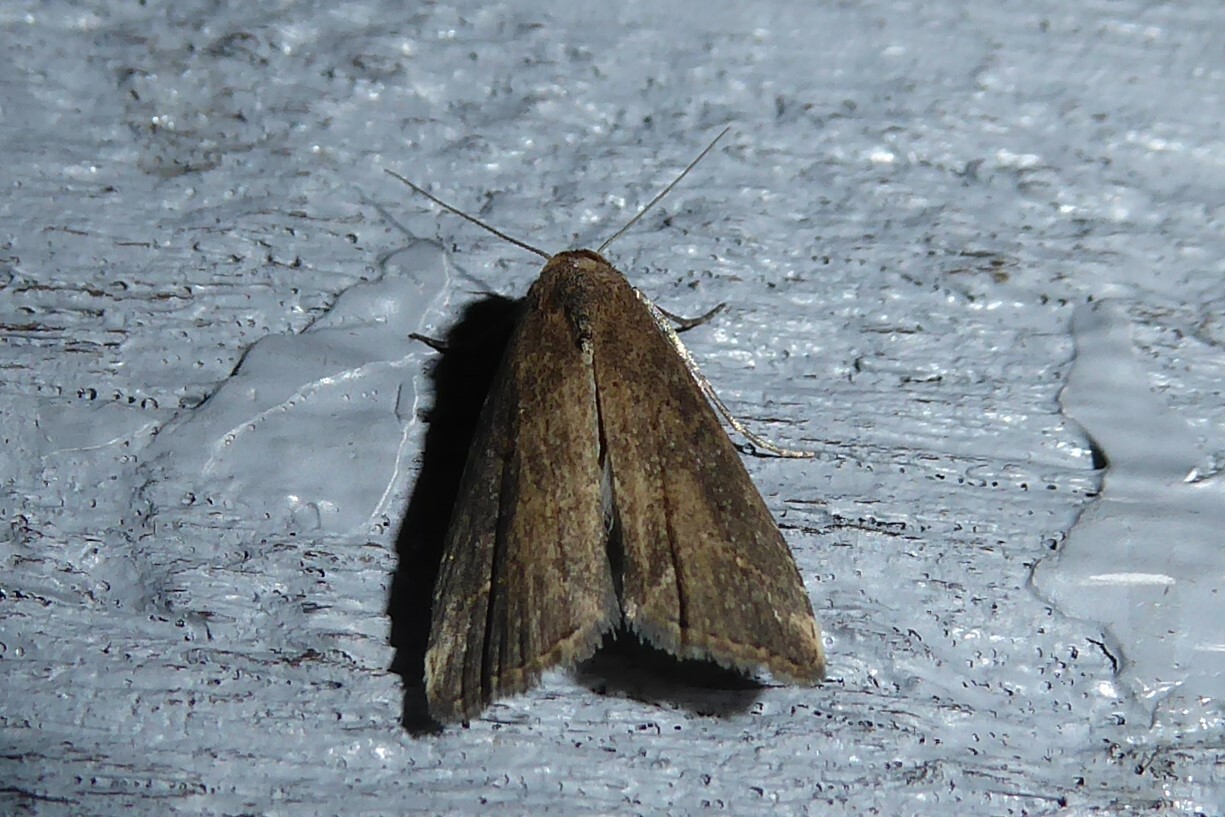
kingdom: Animalia
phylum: Arthropoda
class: Insecta
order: Lepidoptera
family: Erebidae
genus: Schrankia
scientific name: Schrankia costaestrigalis
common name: Pinion-streaked snout
